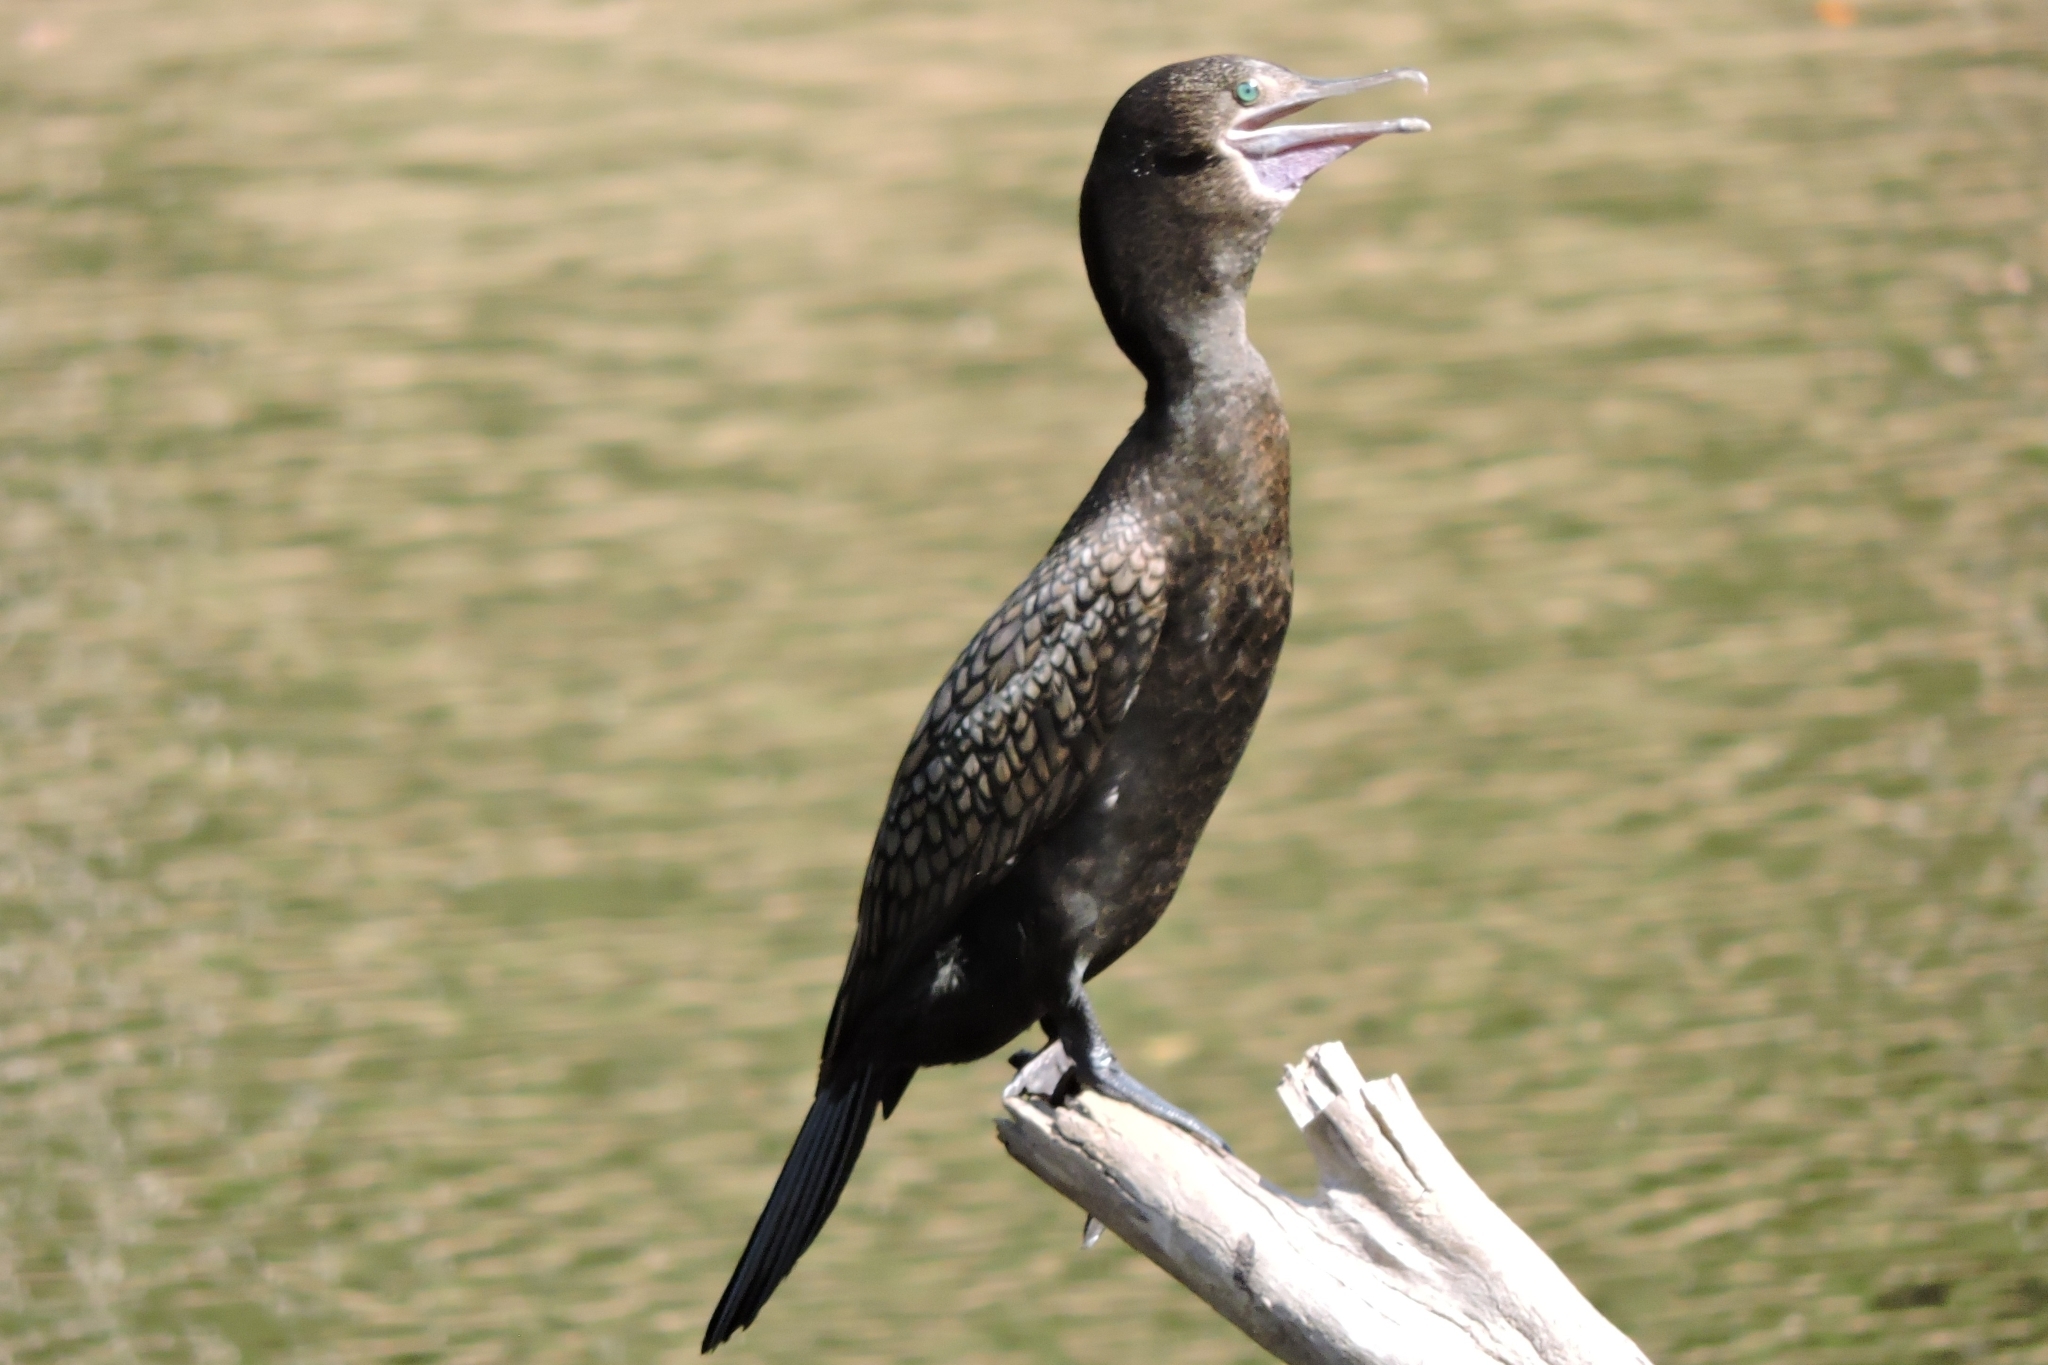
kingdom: Animalia
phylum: Chordata
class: Aves
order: Suliformes
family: Phalacrocoracidae
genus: Phalacrocorax
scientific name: Phalacrocorax sulcirostris
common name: Little black cormorant
